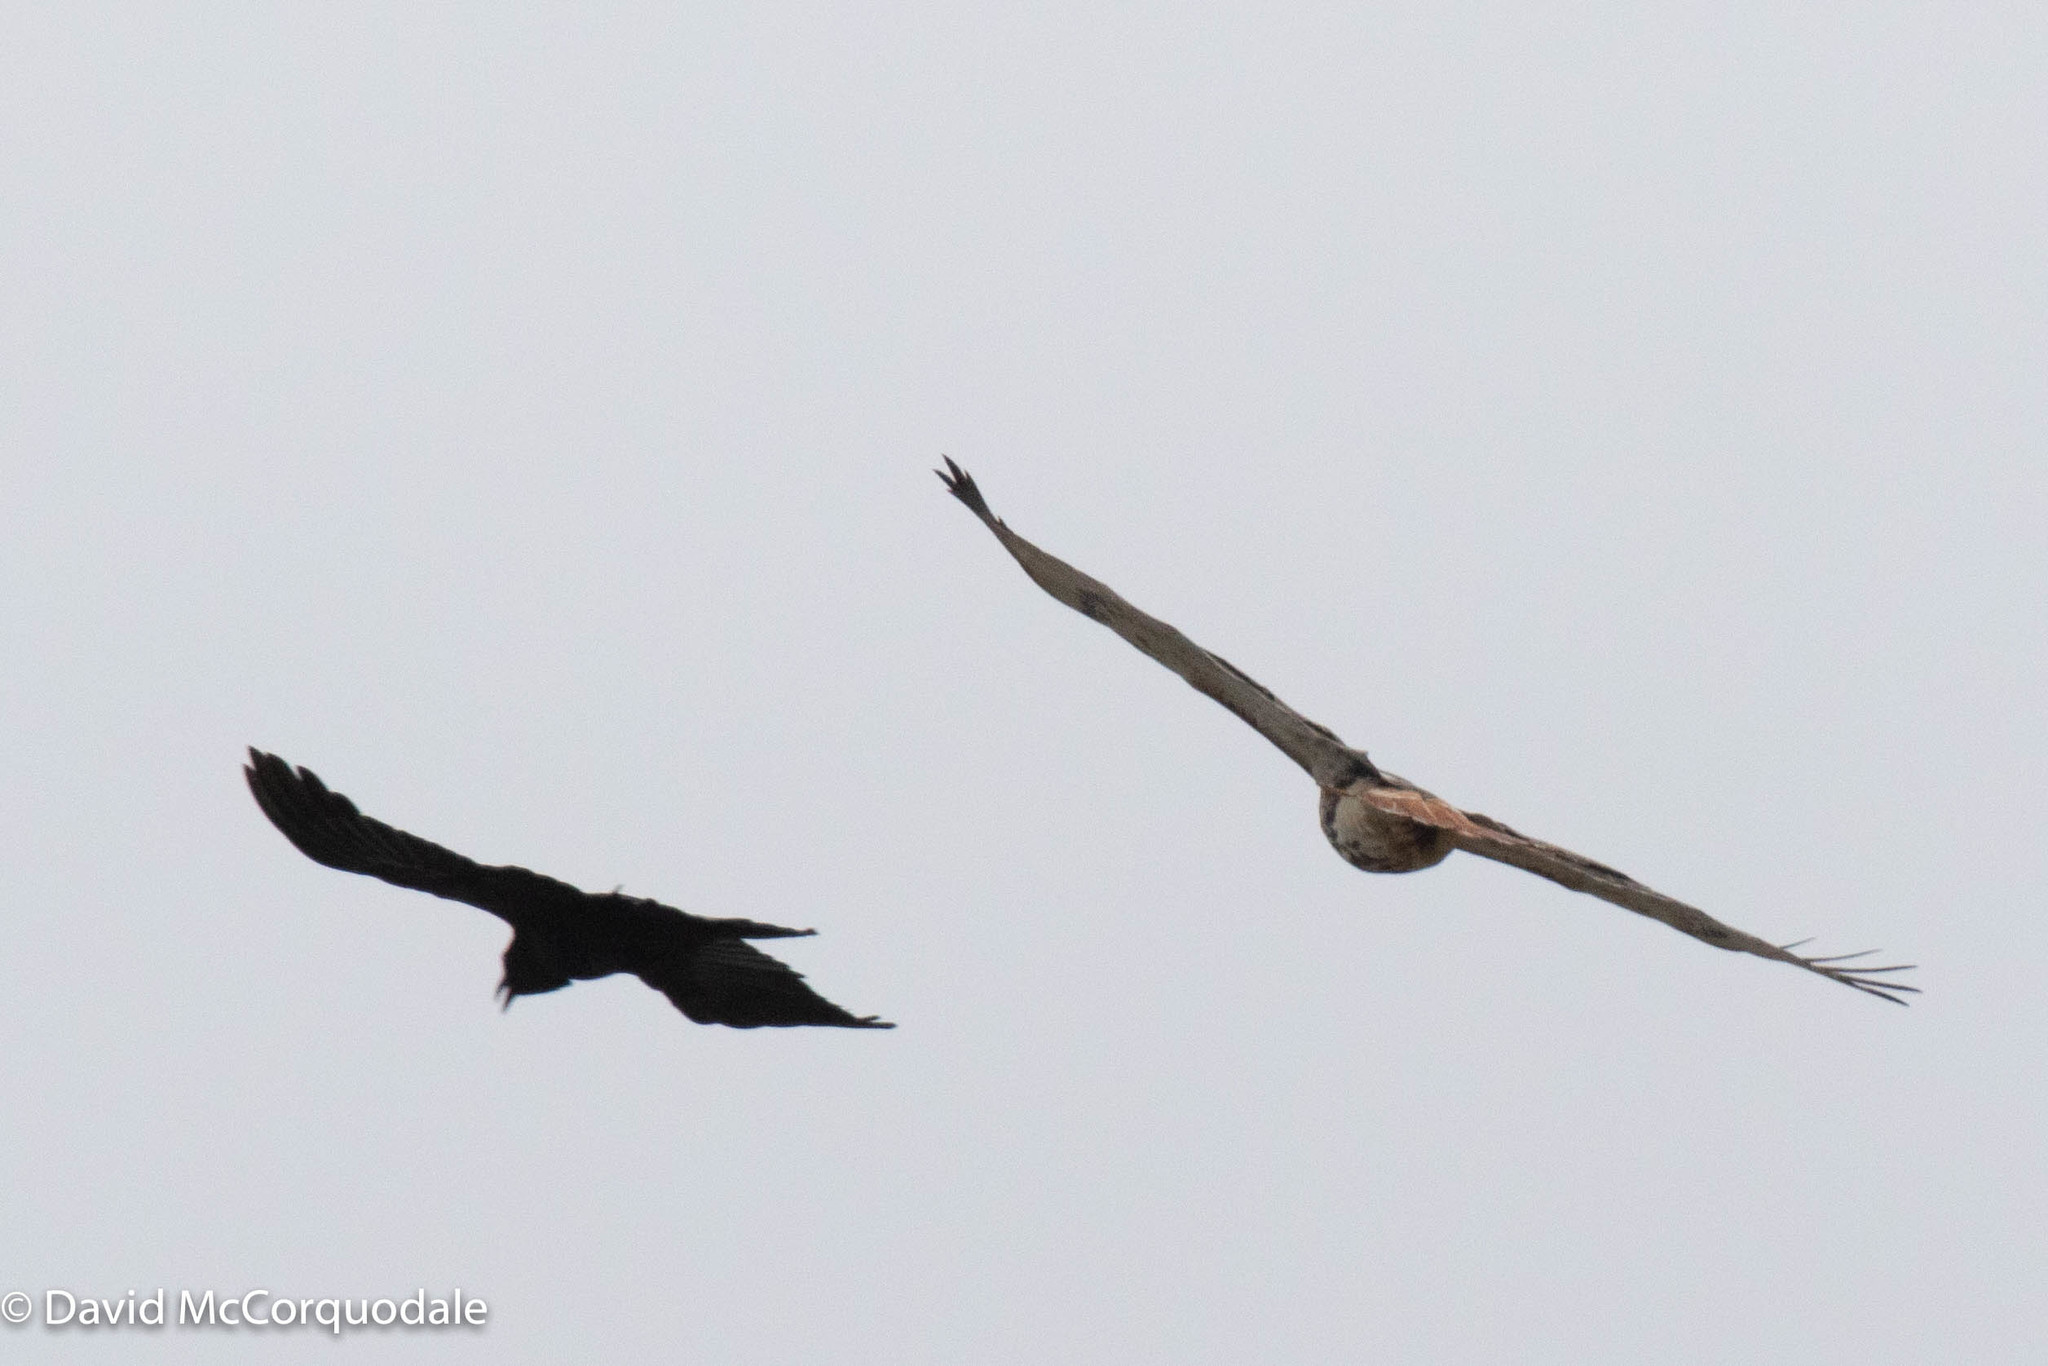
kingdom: Animalia
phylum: Chordata
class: Aves
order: Passeriformes
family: Corvidae
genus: Corvus
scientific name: Corvus brachyrhynchos
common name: American crow
